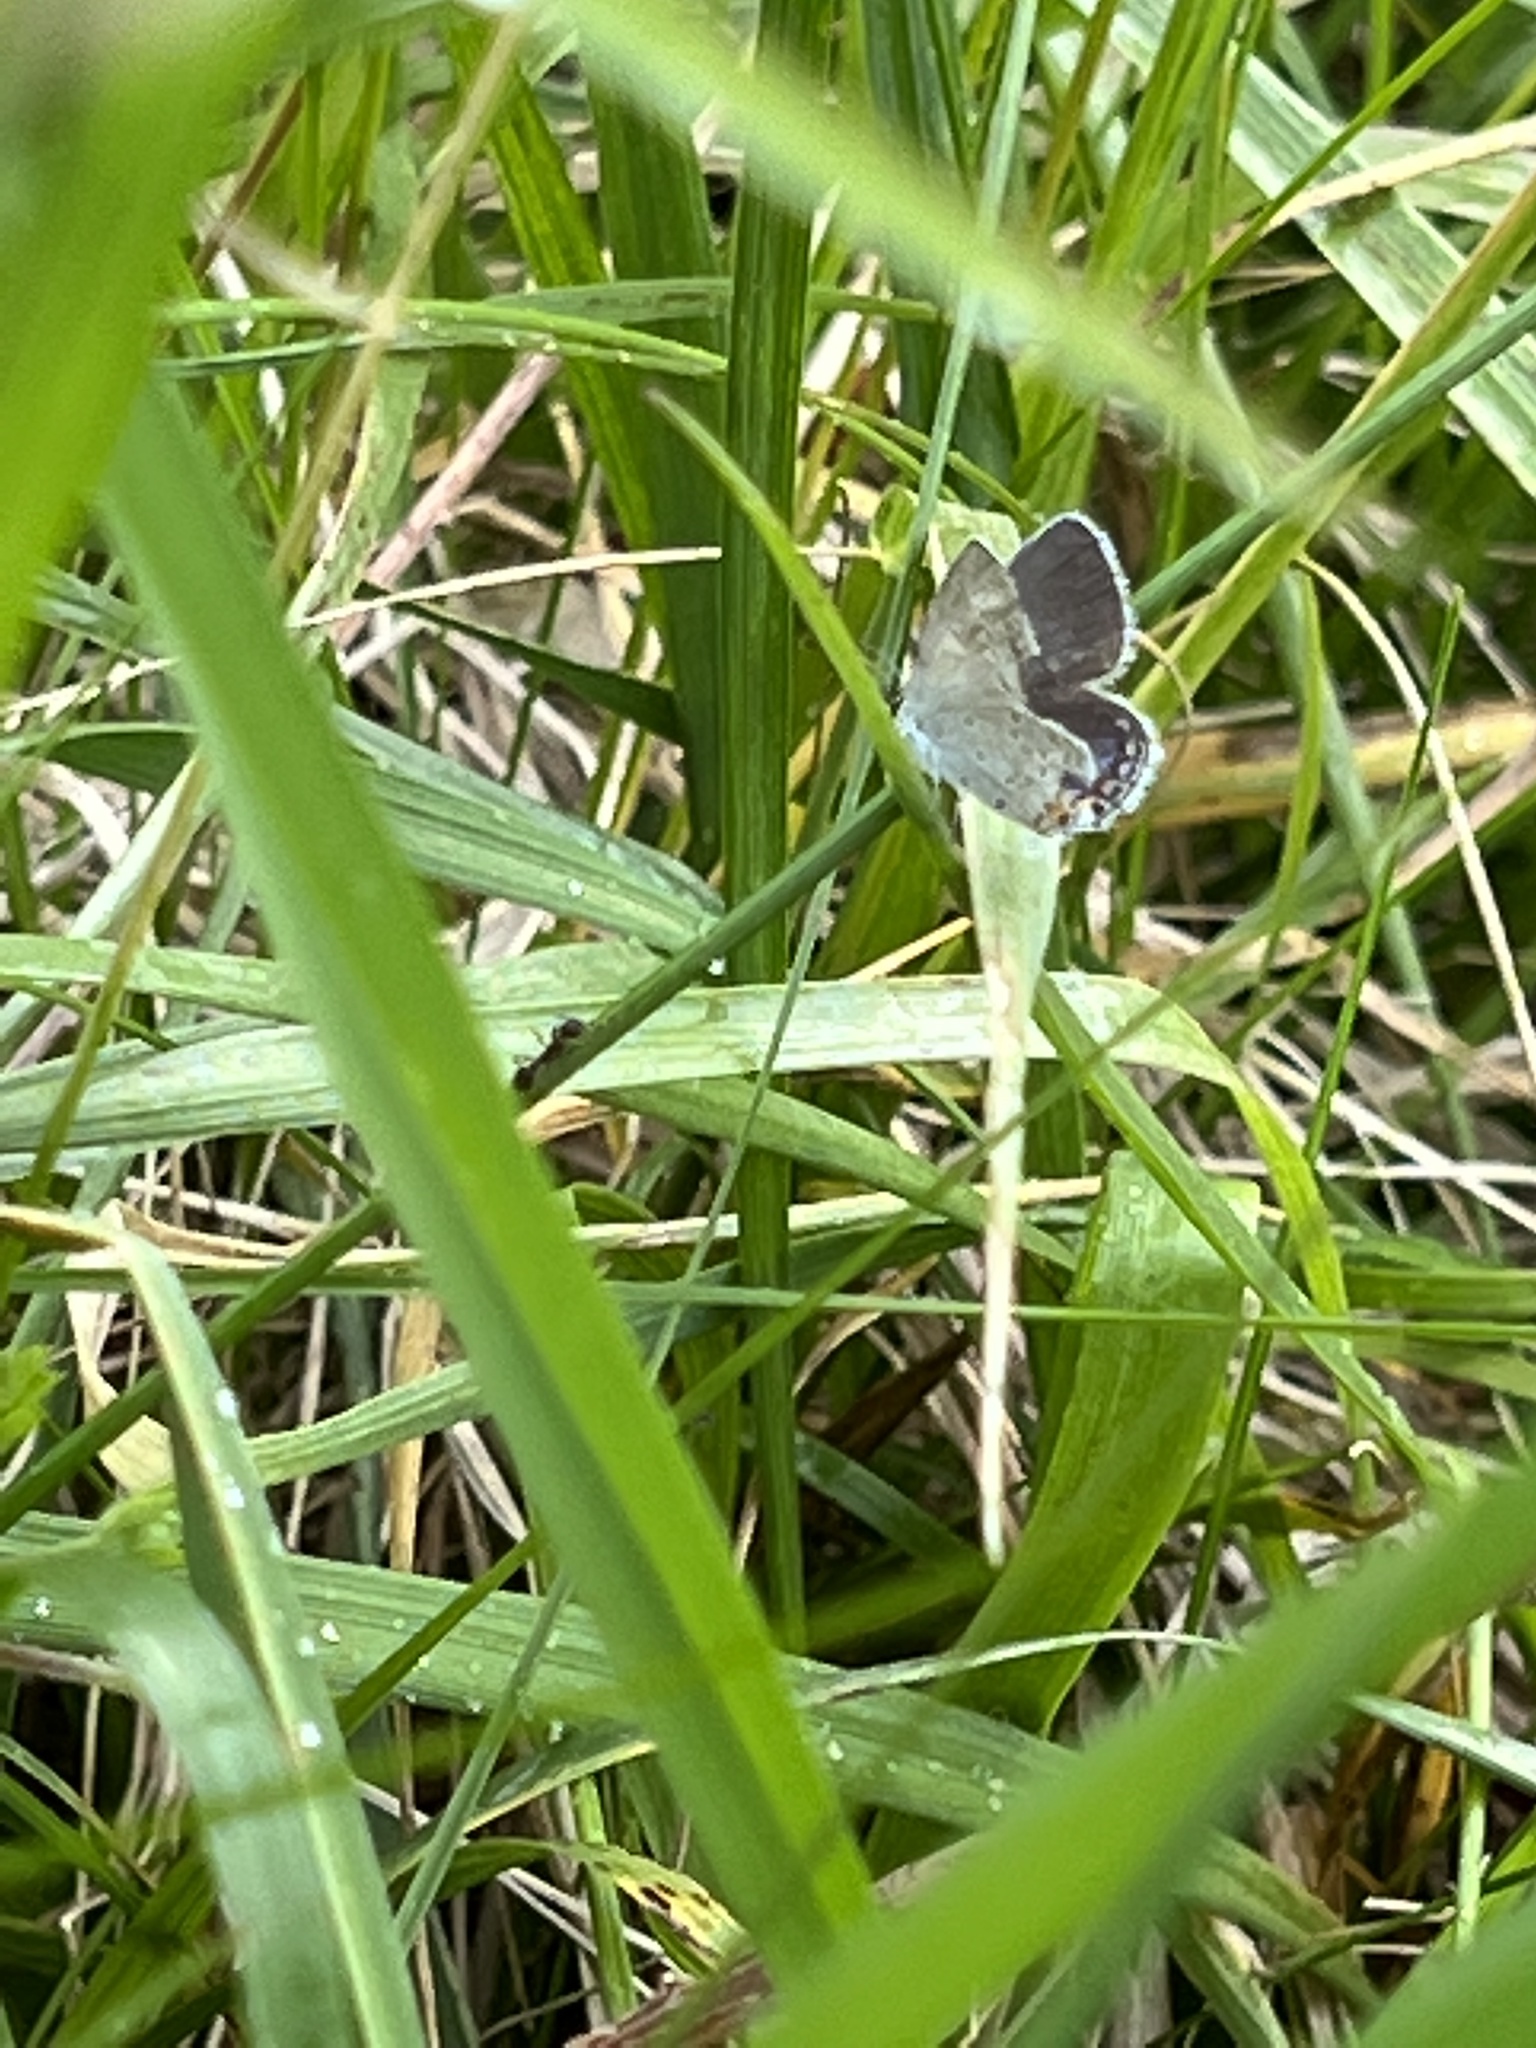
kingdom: Animalia
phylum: Arthropoda
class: Insecta
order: Lepidoptera
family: Lycaenidae
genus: Elkalyce
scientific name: Elkalyce comyntas
